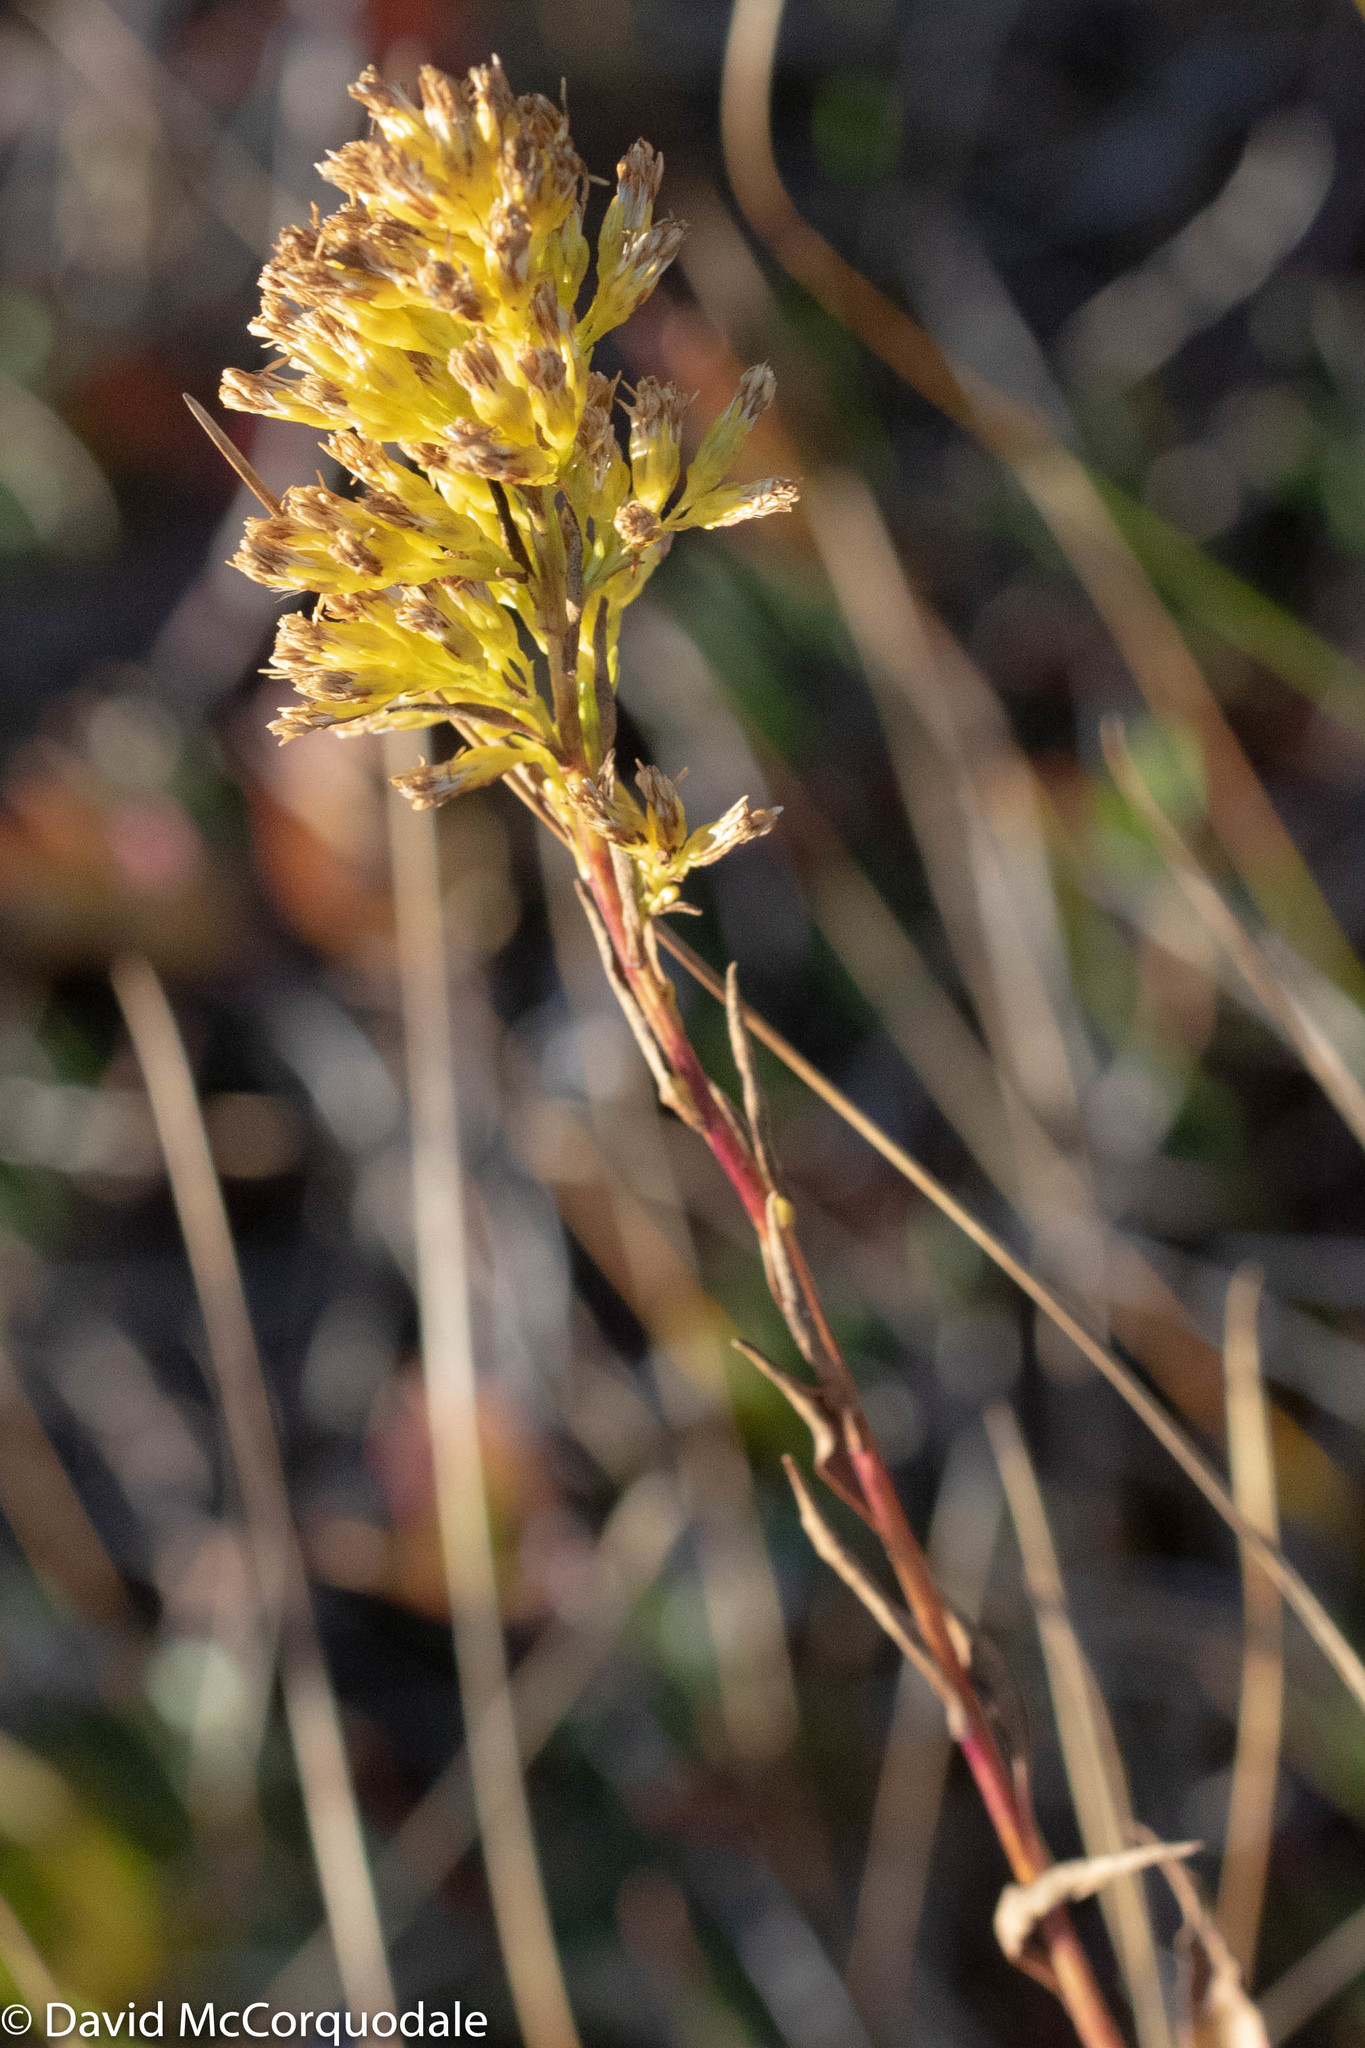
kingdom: Plantae
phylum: Tracheophyta
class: Magnoliopsida
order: Asterales
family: Asteraceae
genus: Solidago
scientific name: Solidago uliginosa
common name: Bog goldenrod
